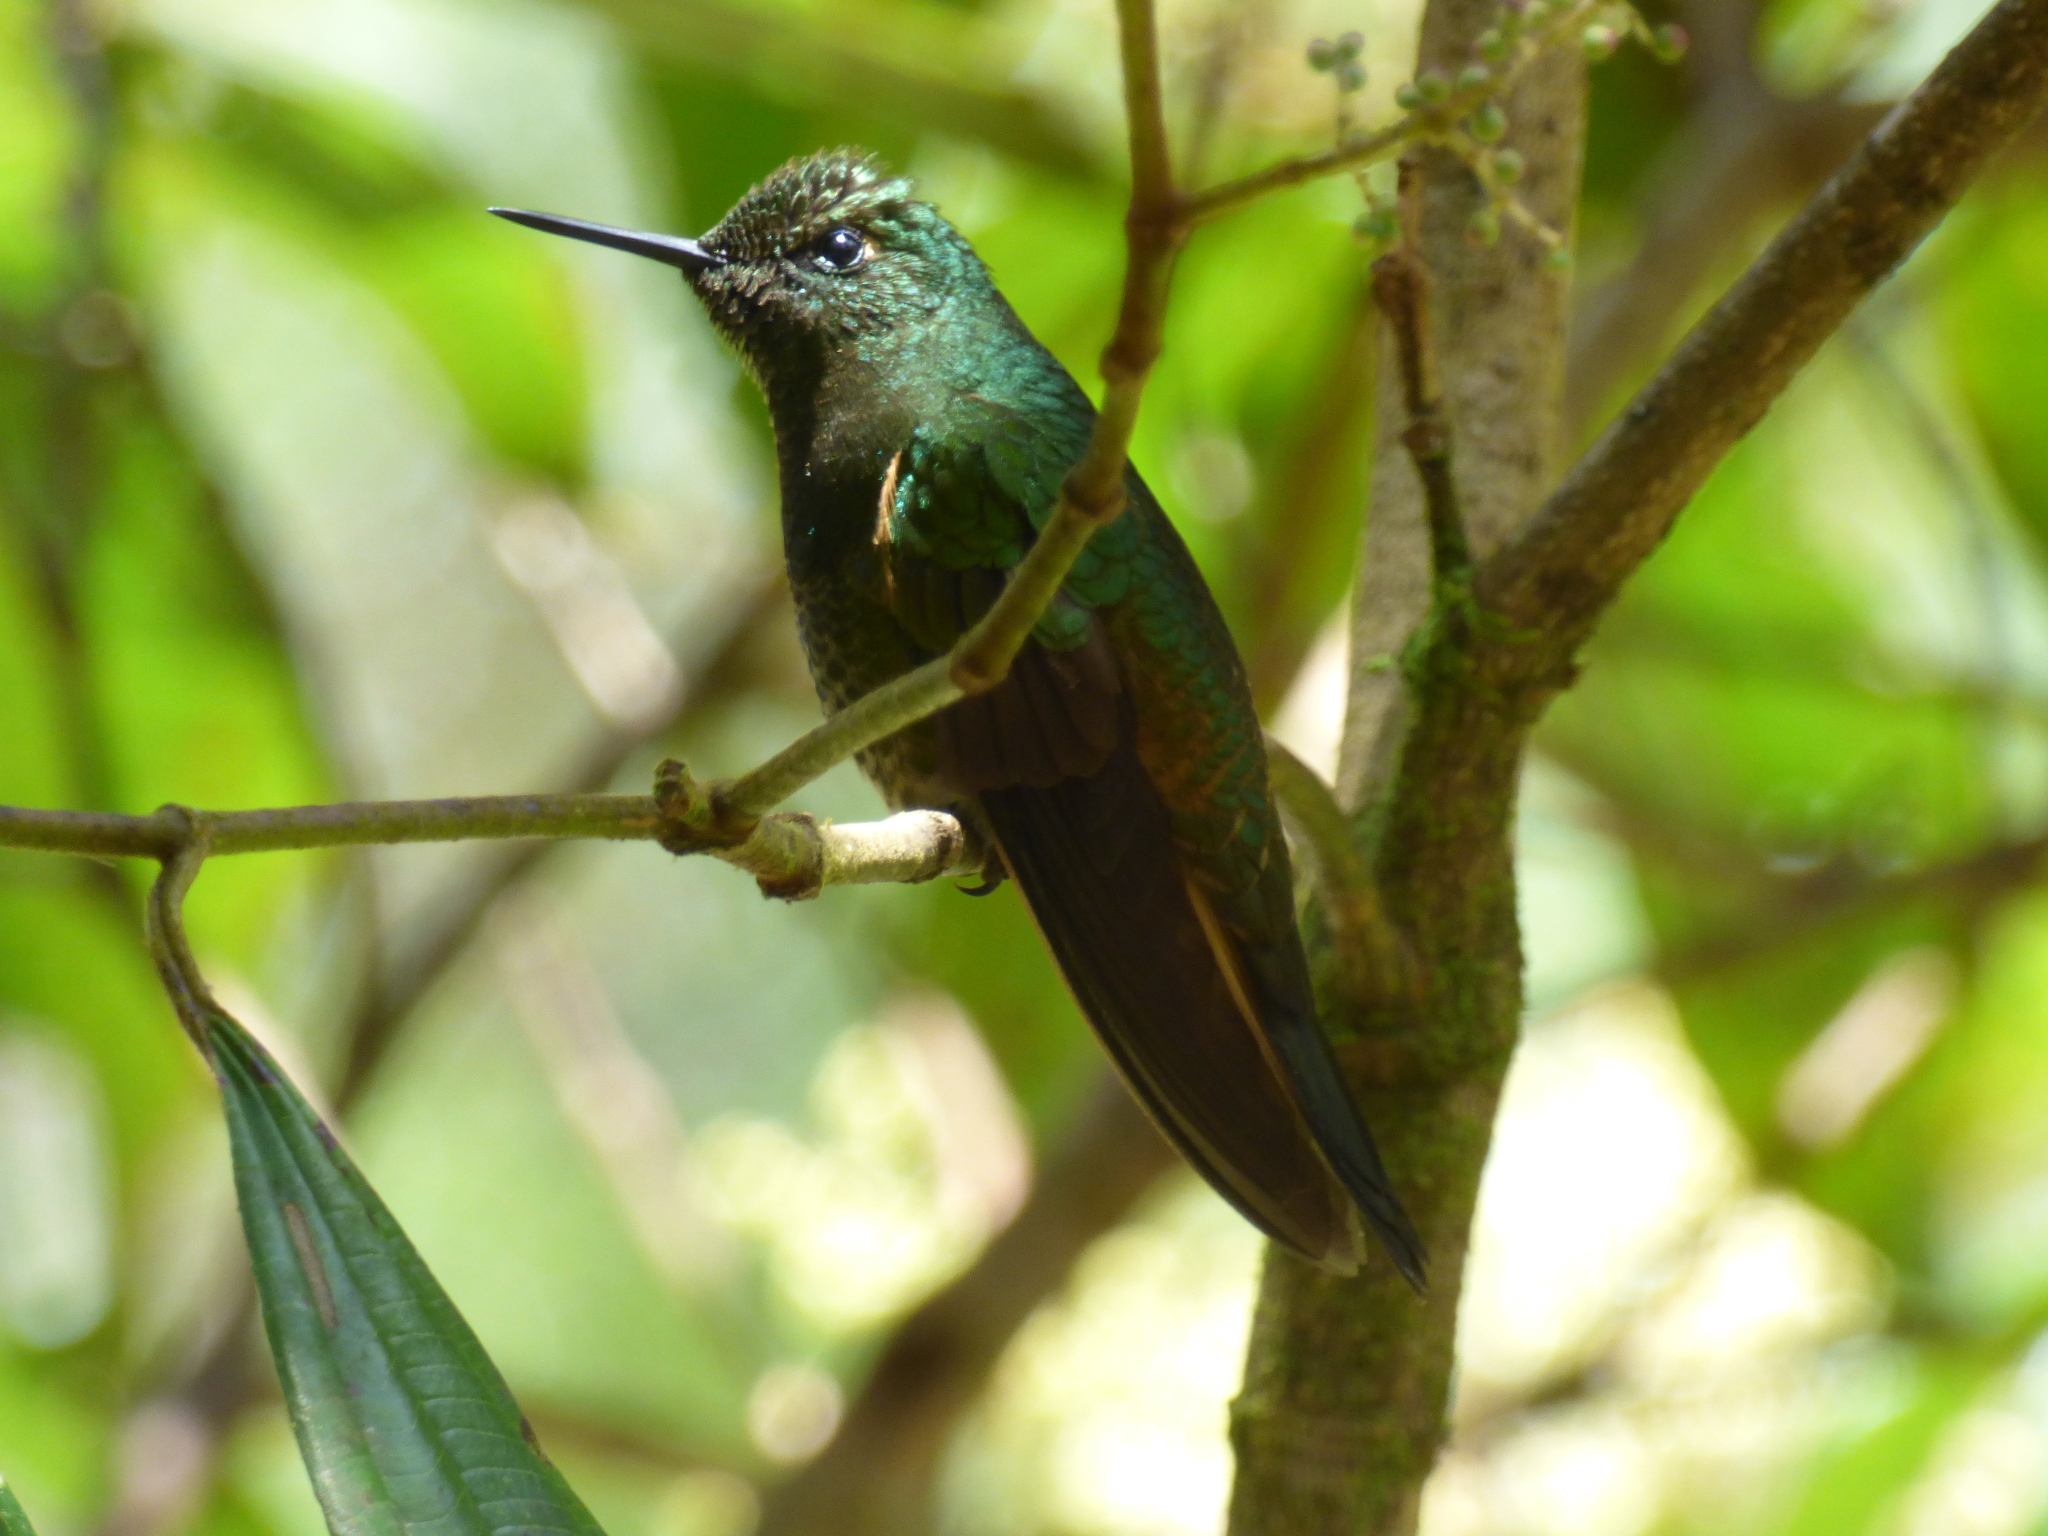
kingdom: Animalia
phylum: Chordata
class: Aves
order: Apodiformes
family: Trochilidae
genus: Boissonneaua
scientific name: Boissonneaua flavescens
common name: Buff-tailed coronet
